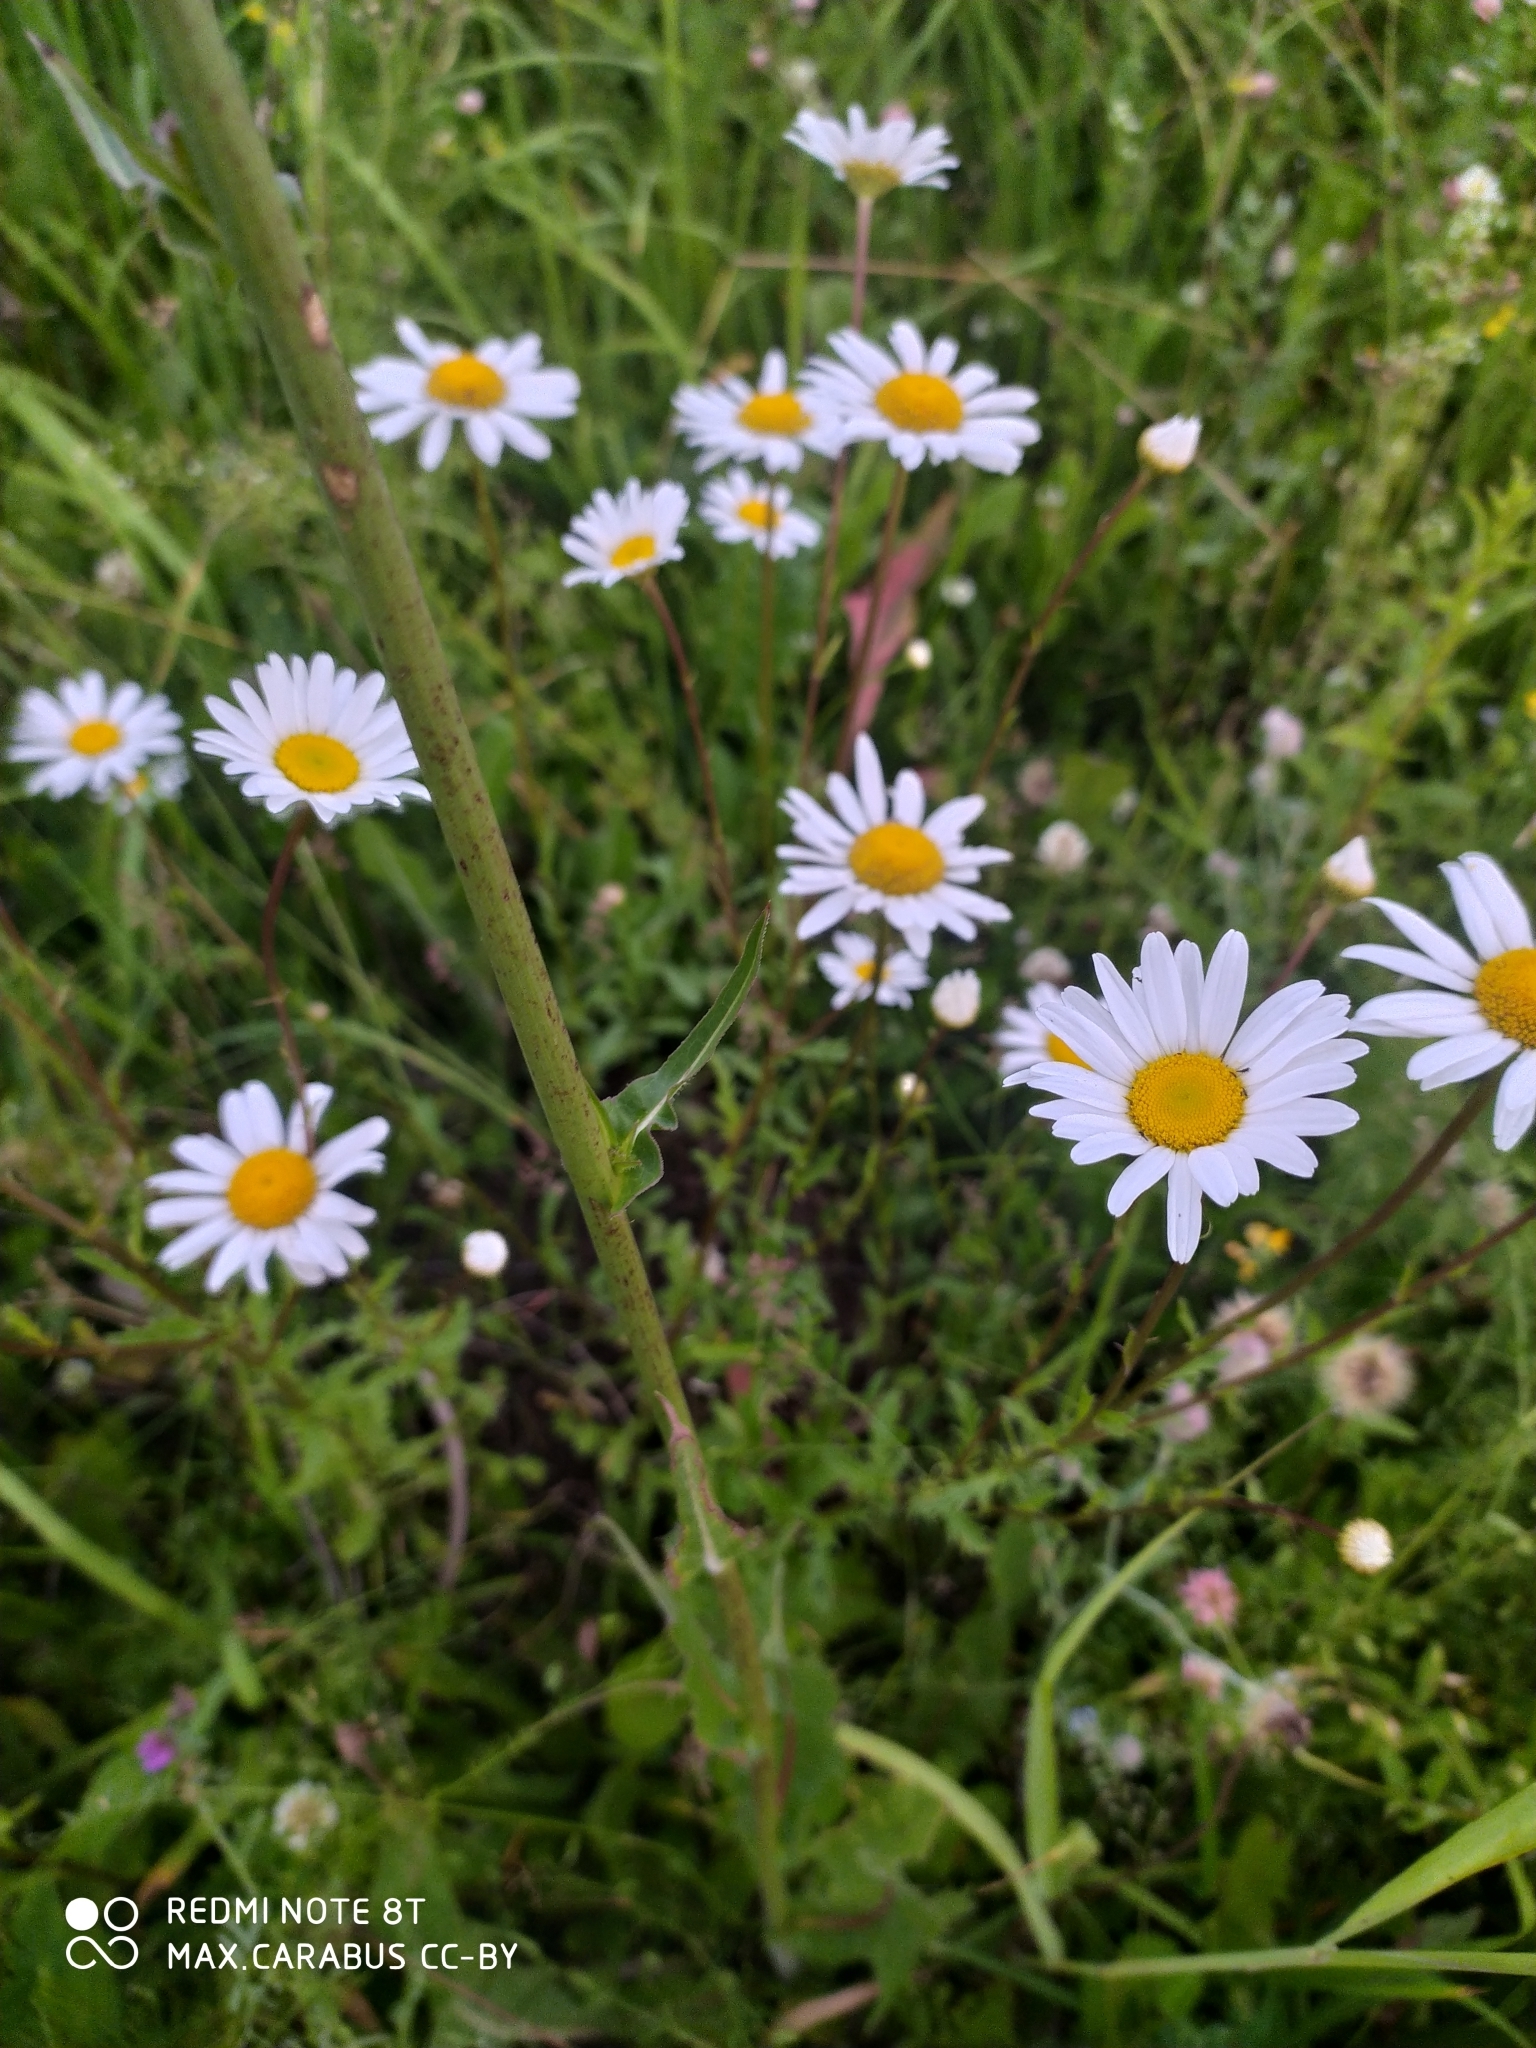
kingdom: Plantae
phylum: Tracheophyta
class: Magnoliopsida
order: Asterales
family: Asteraceae
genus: Leucanthemum
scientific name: Leucanthemum vulgare
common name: Oxeye daisy
